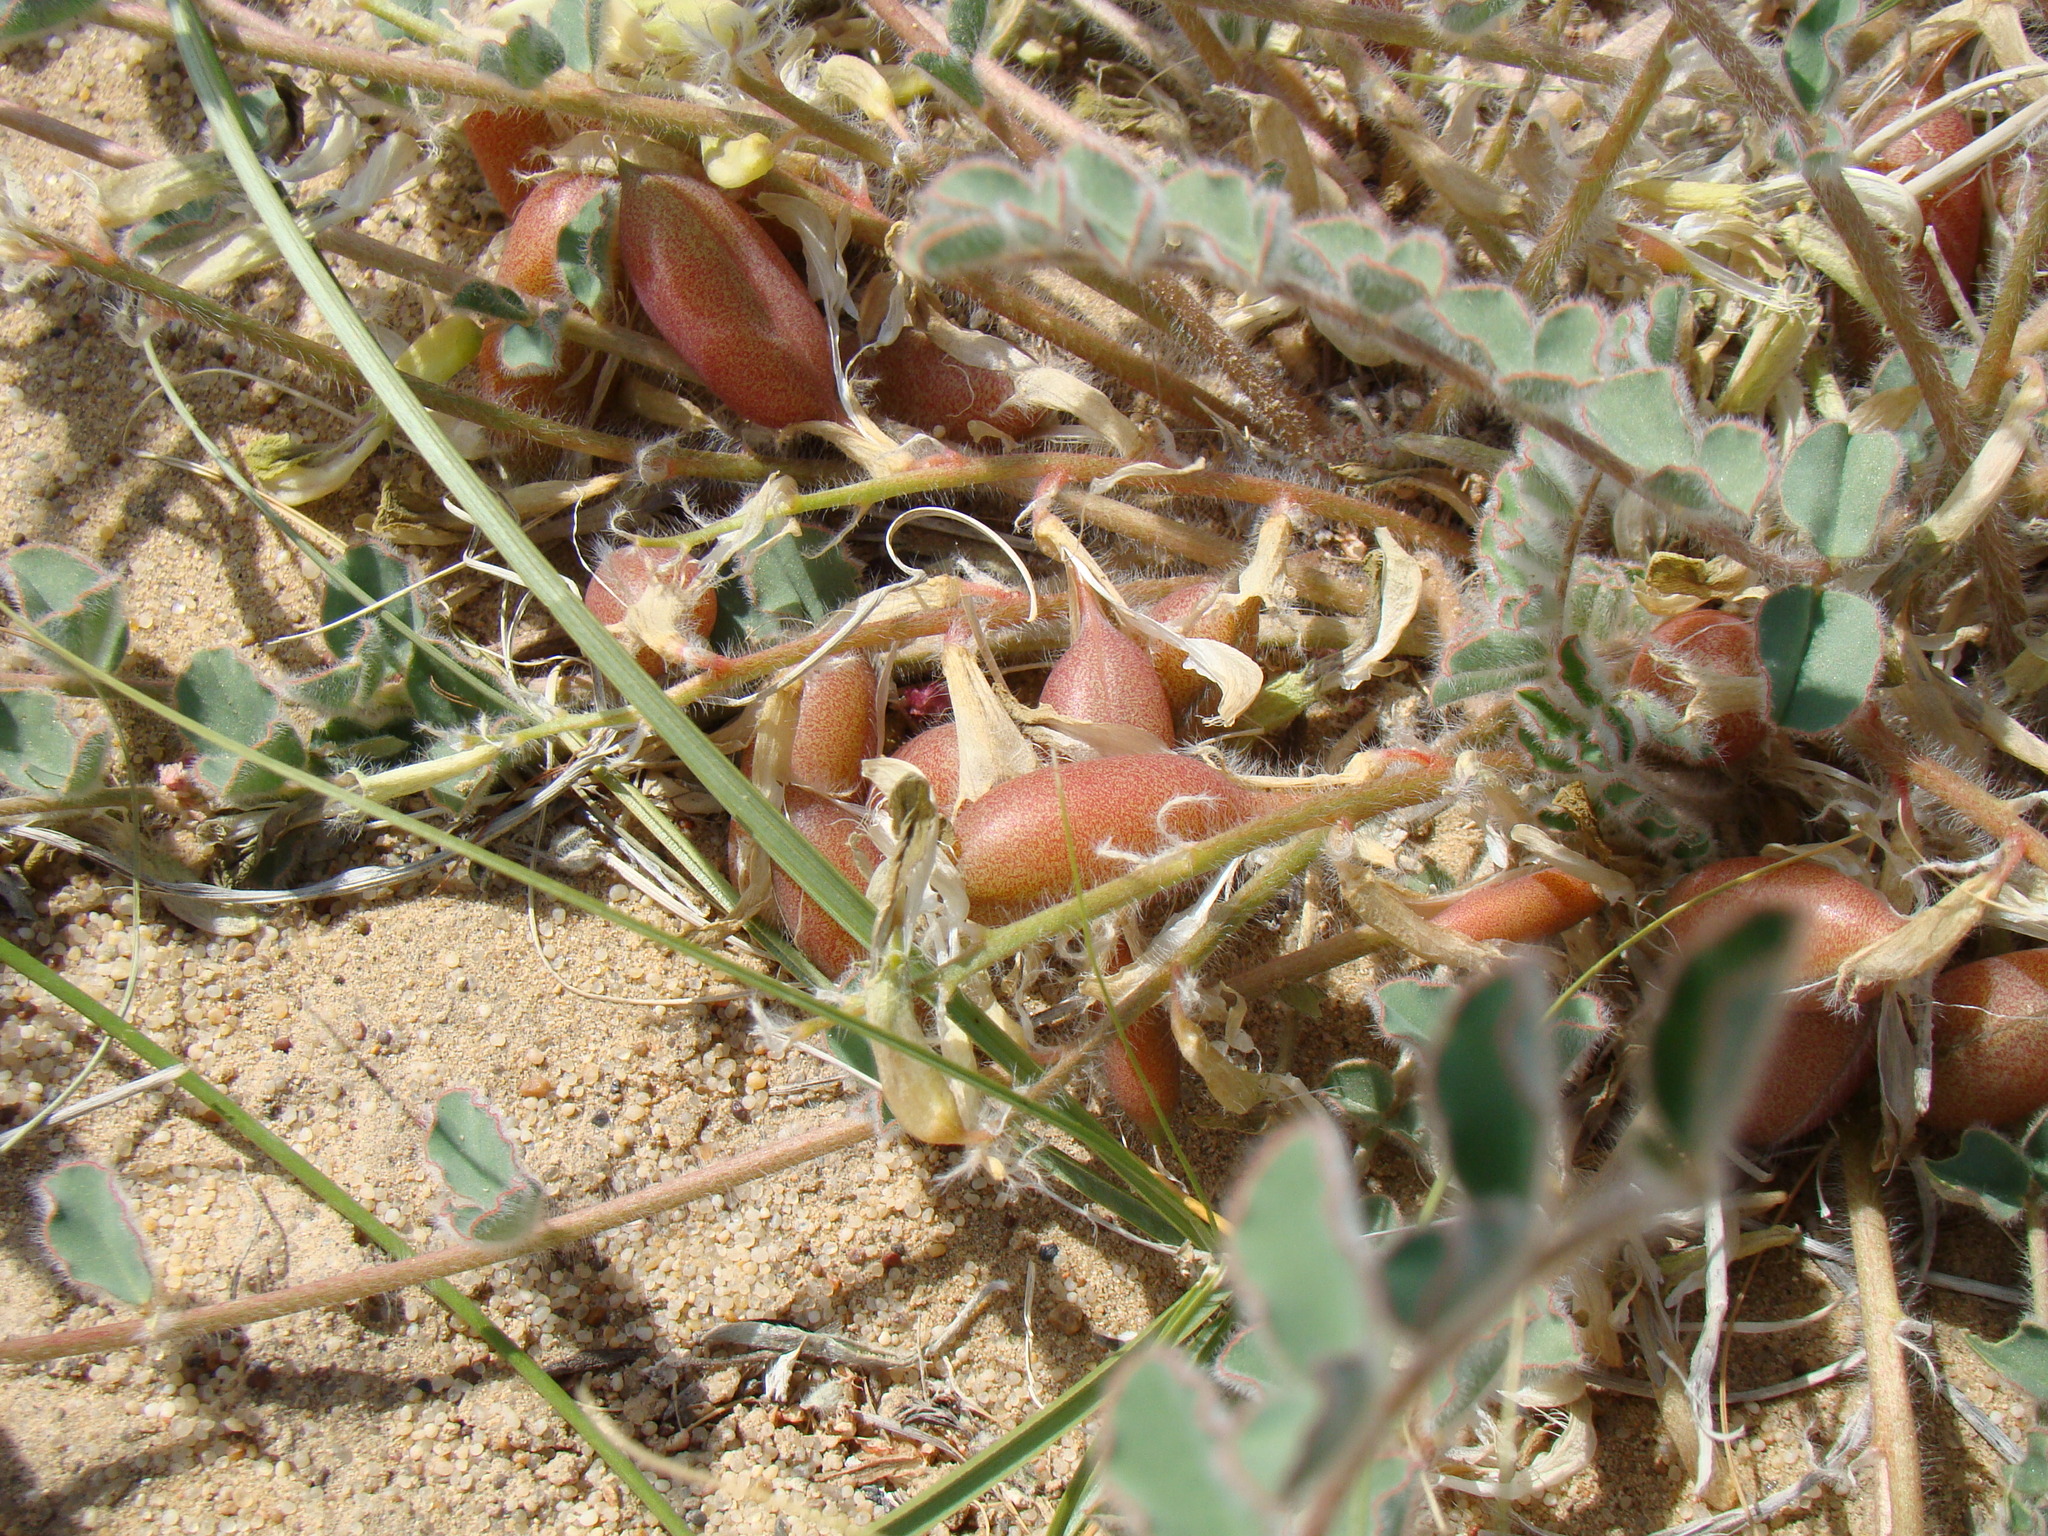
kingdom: Plantae
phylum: Tracheophyta
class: Magnoliopsida
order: Fabales
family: Fabaceae
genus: Astragalus
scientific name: Astragalus flexus
